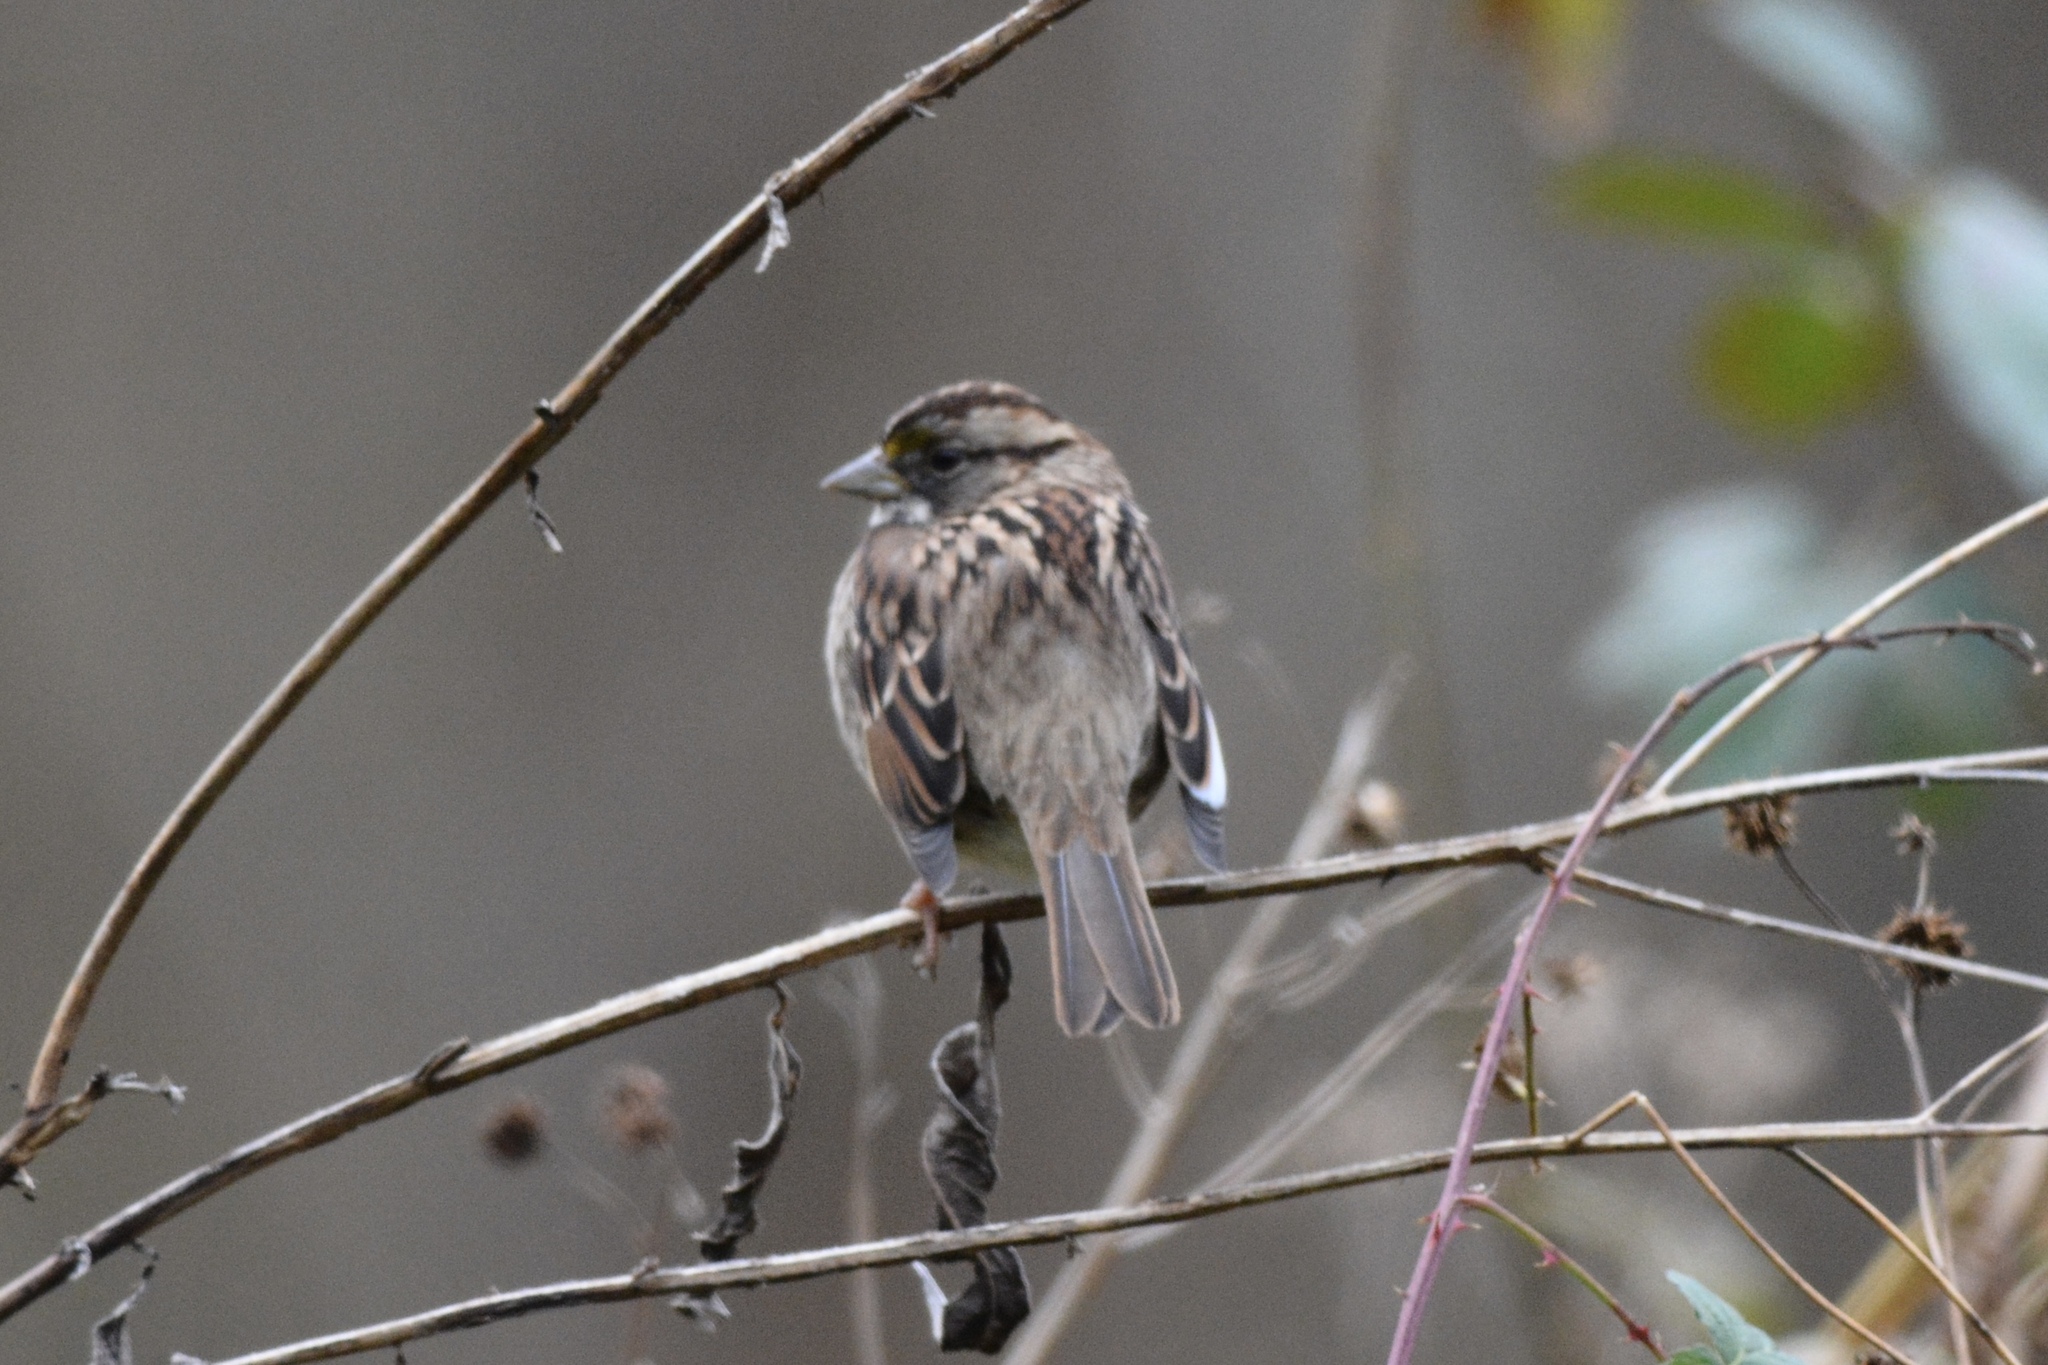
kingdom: Animalia
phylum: Chordata
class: Aves
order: Passeriformes
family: Passerellidae
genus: Zonotrichia
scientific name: Zonotrichia albicollis
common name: White-throated sparrow
